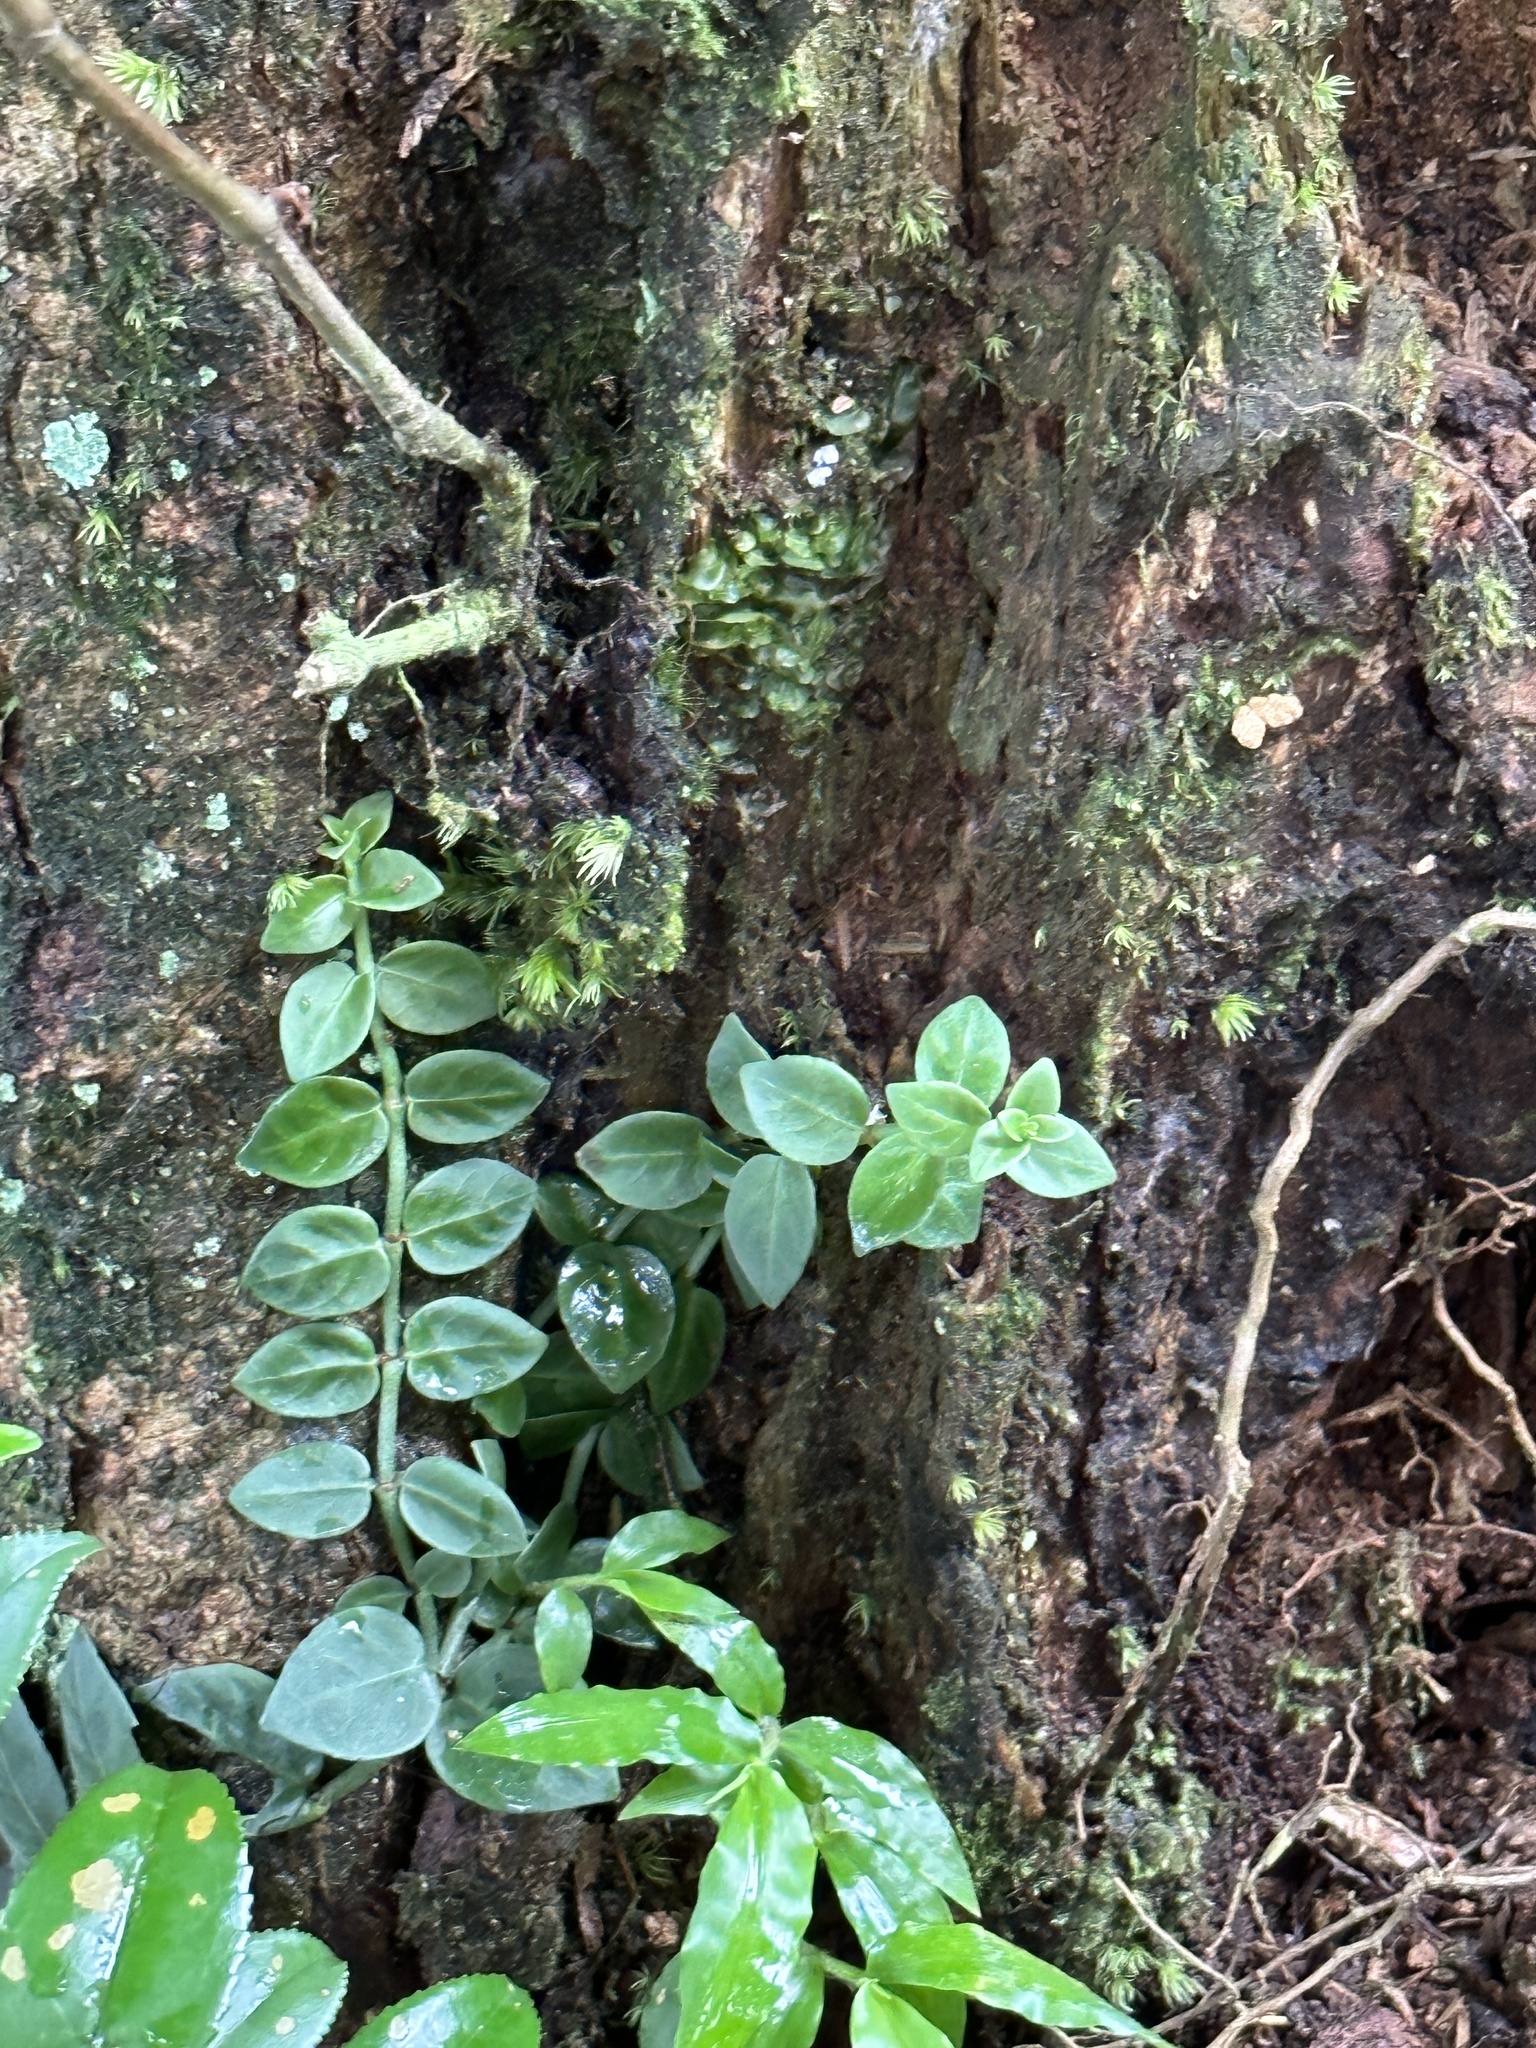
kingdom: Plantae
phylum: Tracheophyta
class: Magnoliopsida
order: Gentianales
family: Rubiaceae
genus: Psychotria
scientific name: Psychotria serpens
